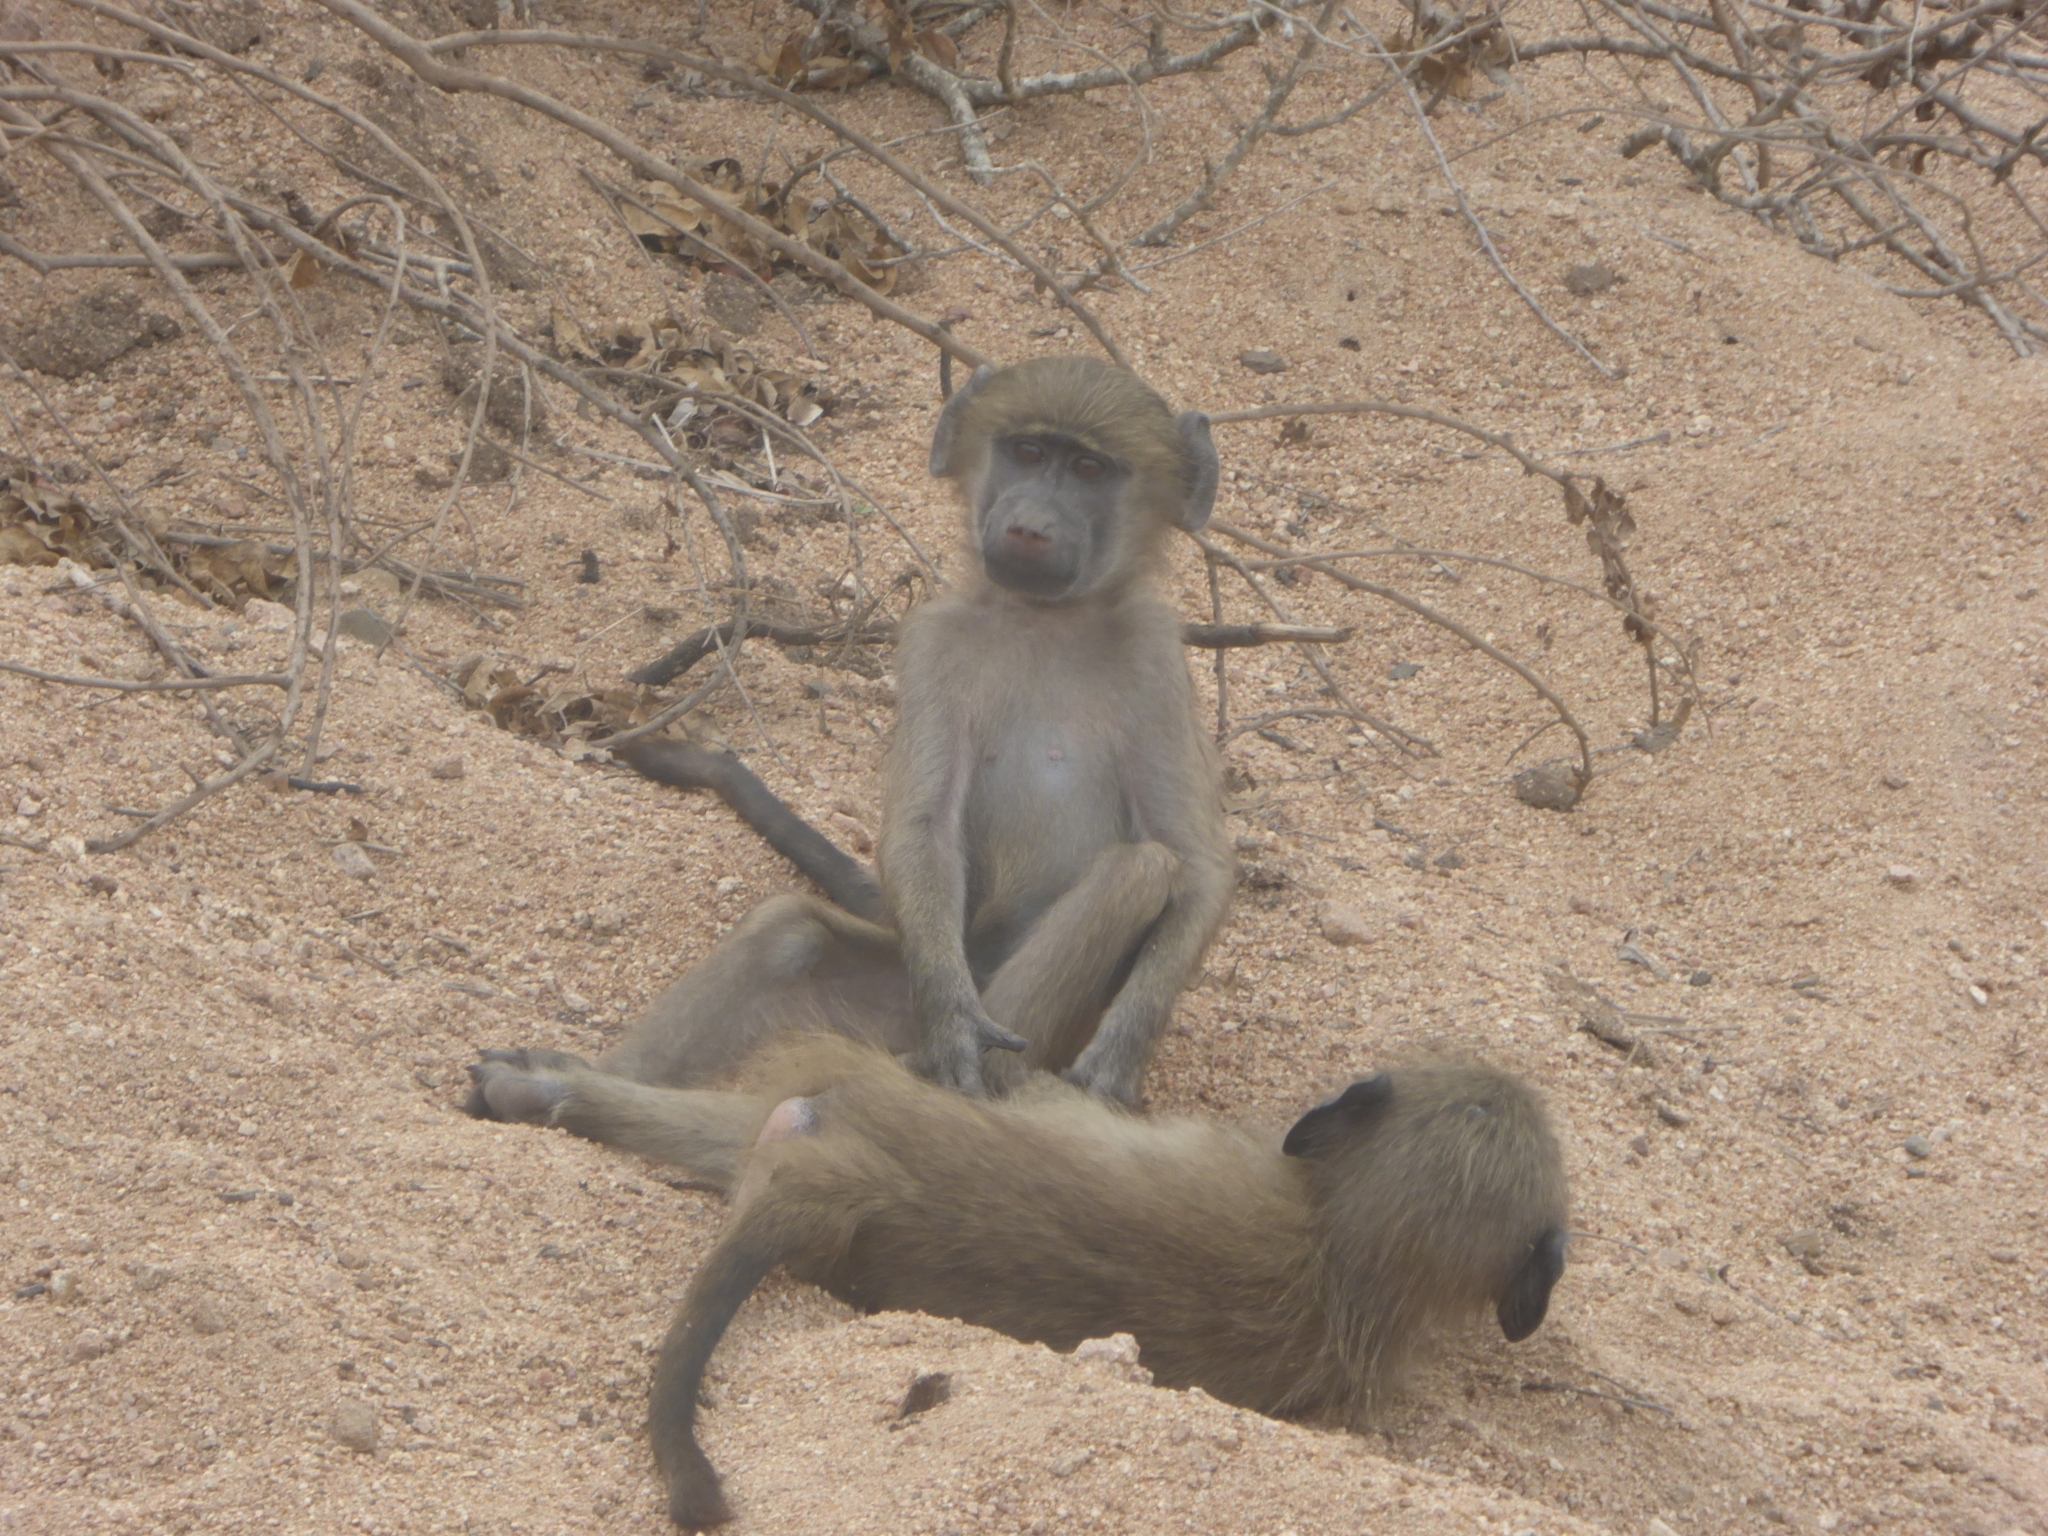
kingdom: Animalia
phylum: Chordata
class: Mammalia
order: Primates
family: Cercopithecidae
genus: Papio
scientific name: Papio ursinus
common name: Chacma baboon
